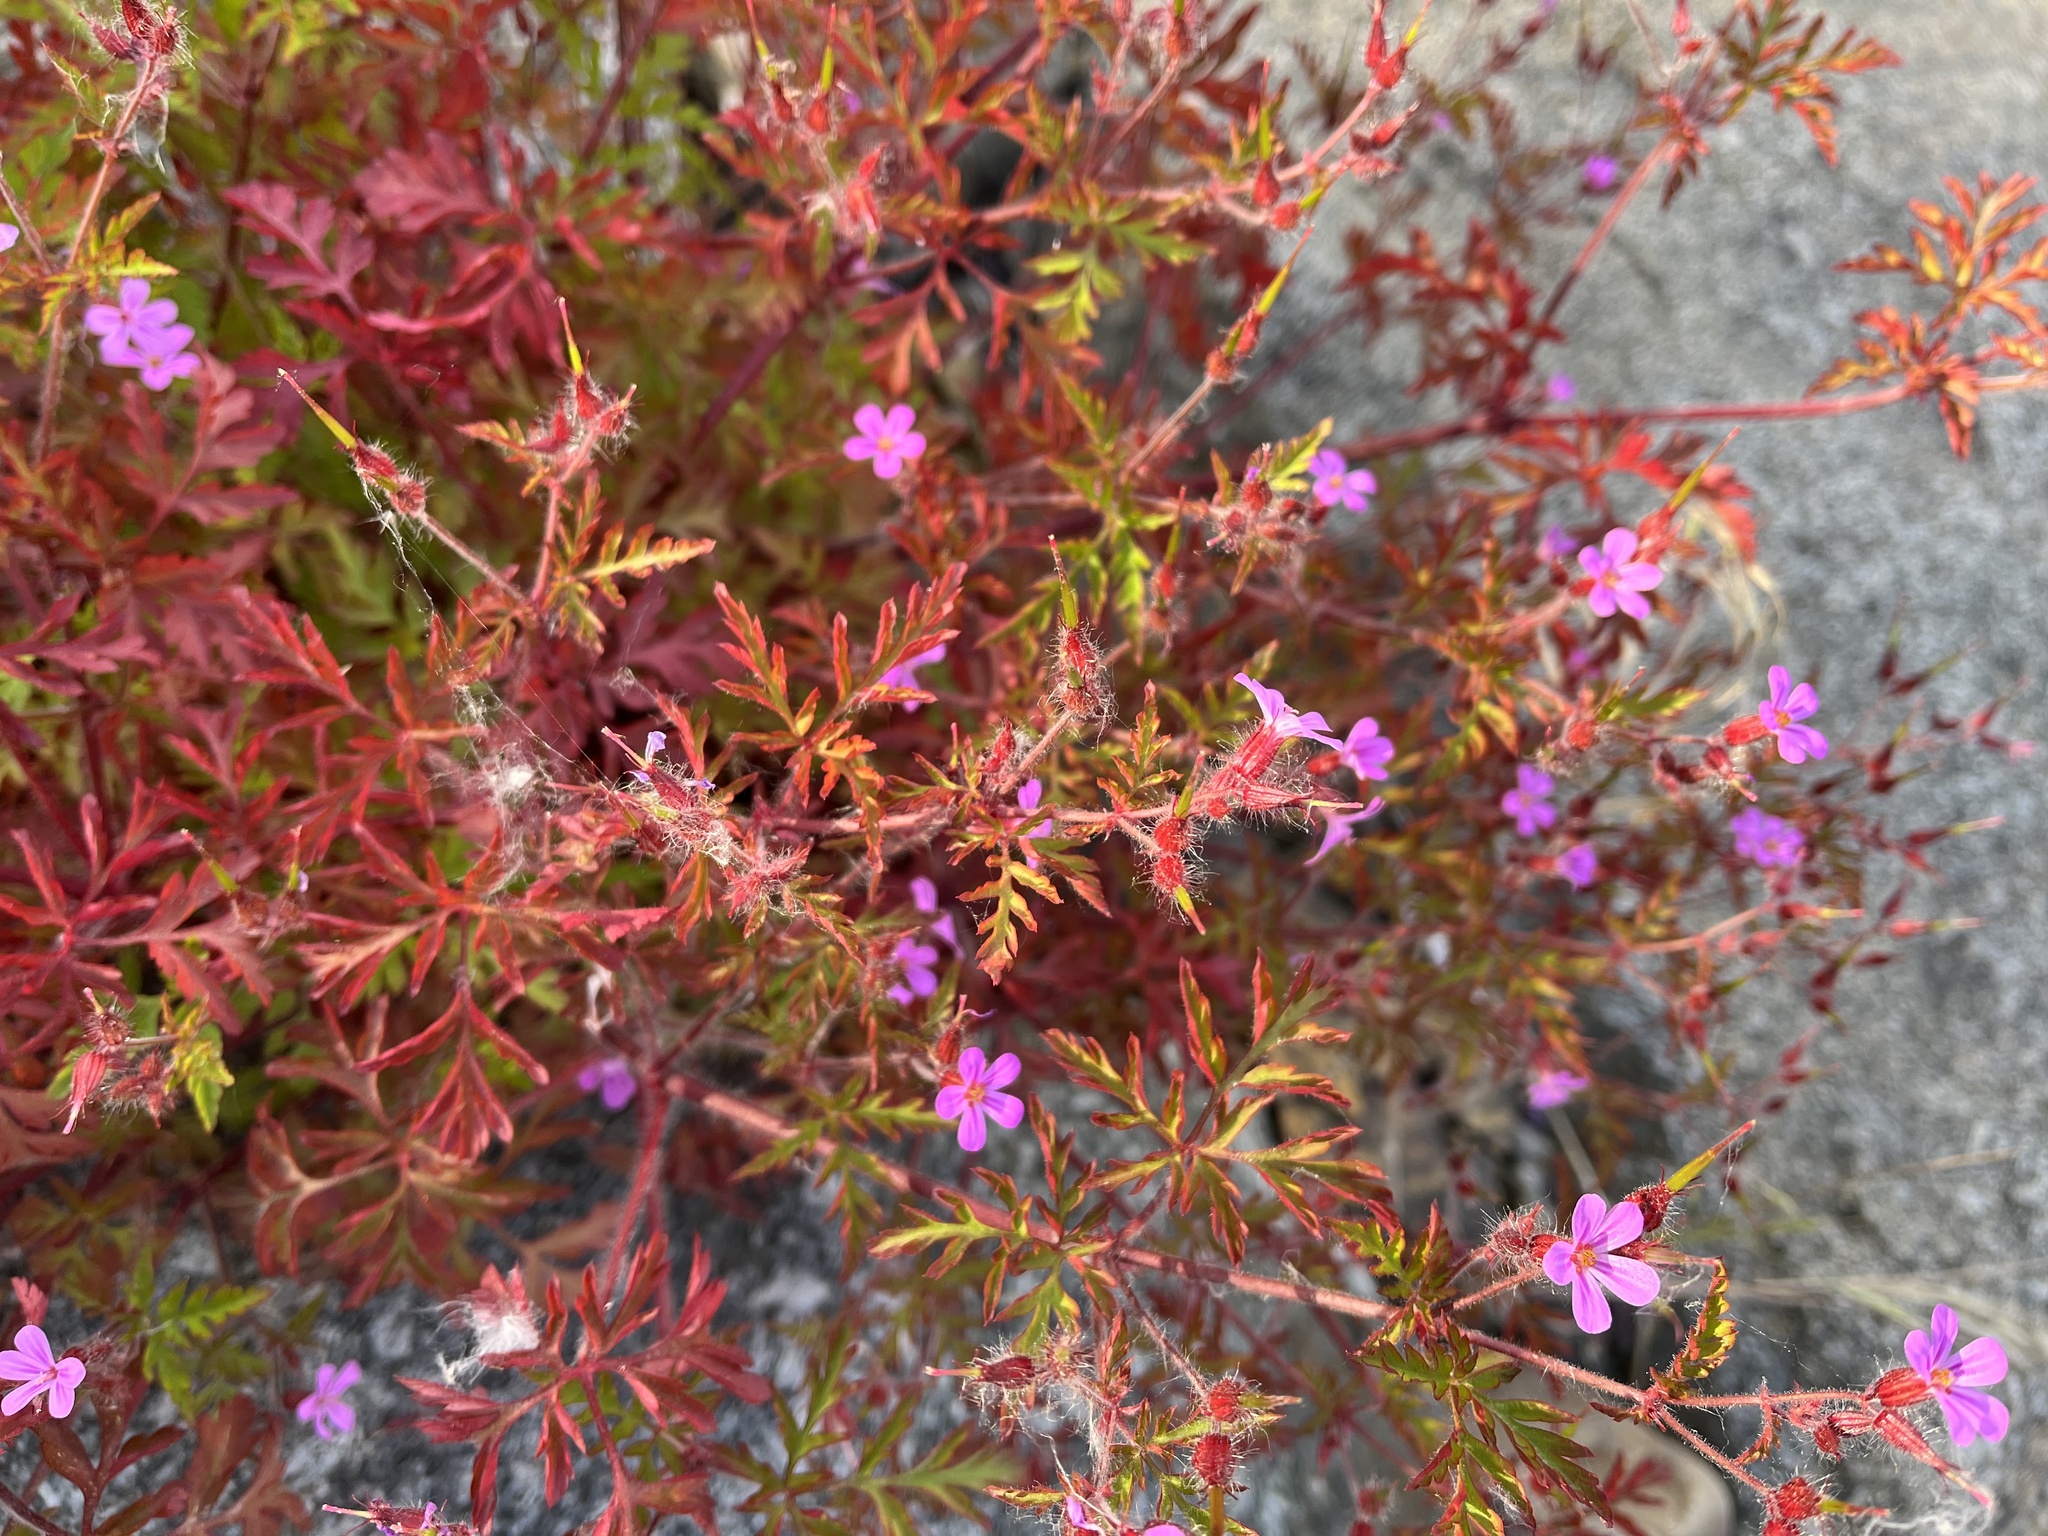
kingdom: Plantae
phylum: Tracheophyta
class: Magnoliopsida
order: Geraniales
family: Geraniaceae
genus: Geranium
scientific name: Geranium robertianum
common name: Herb-robert
